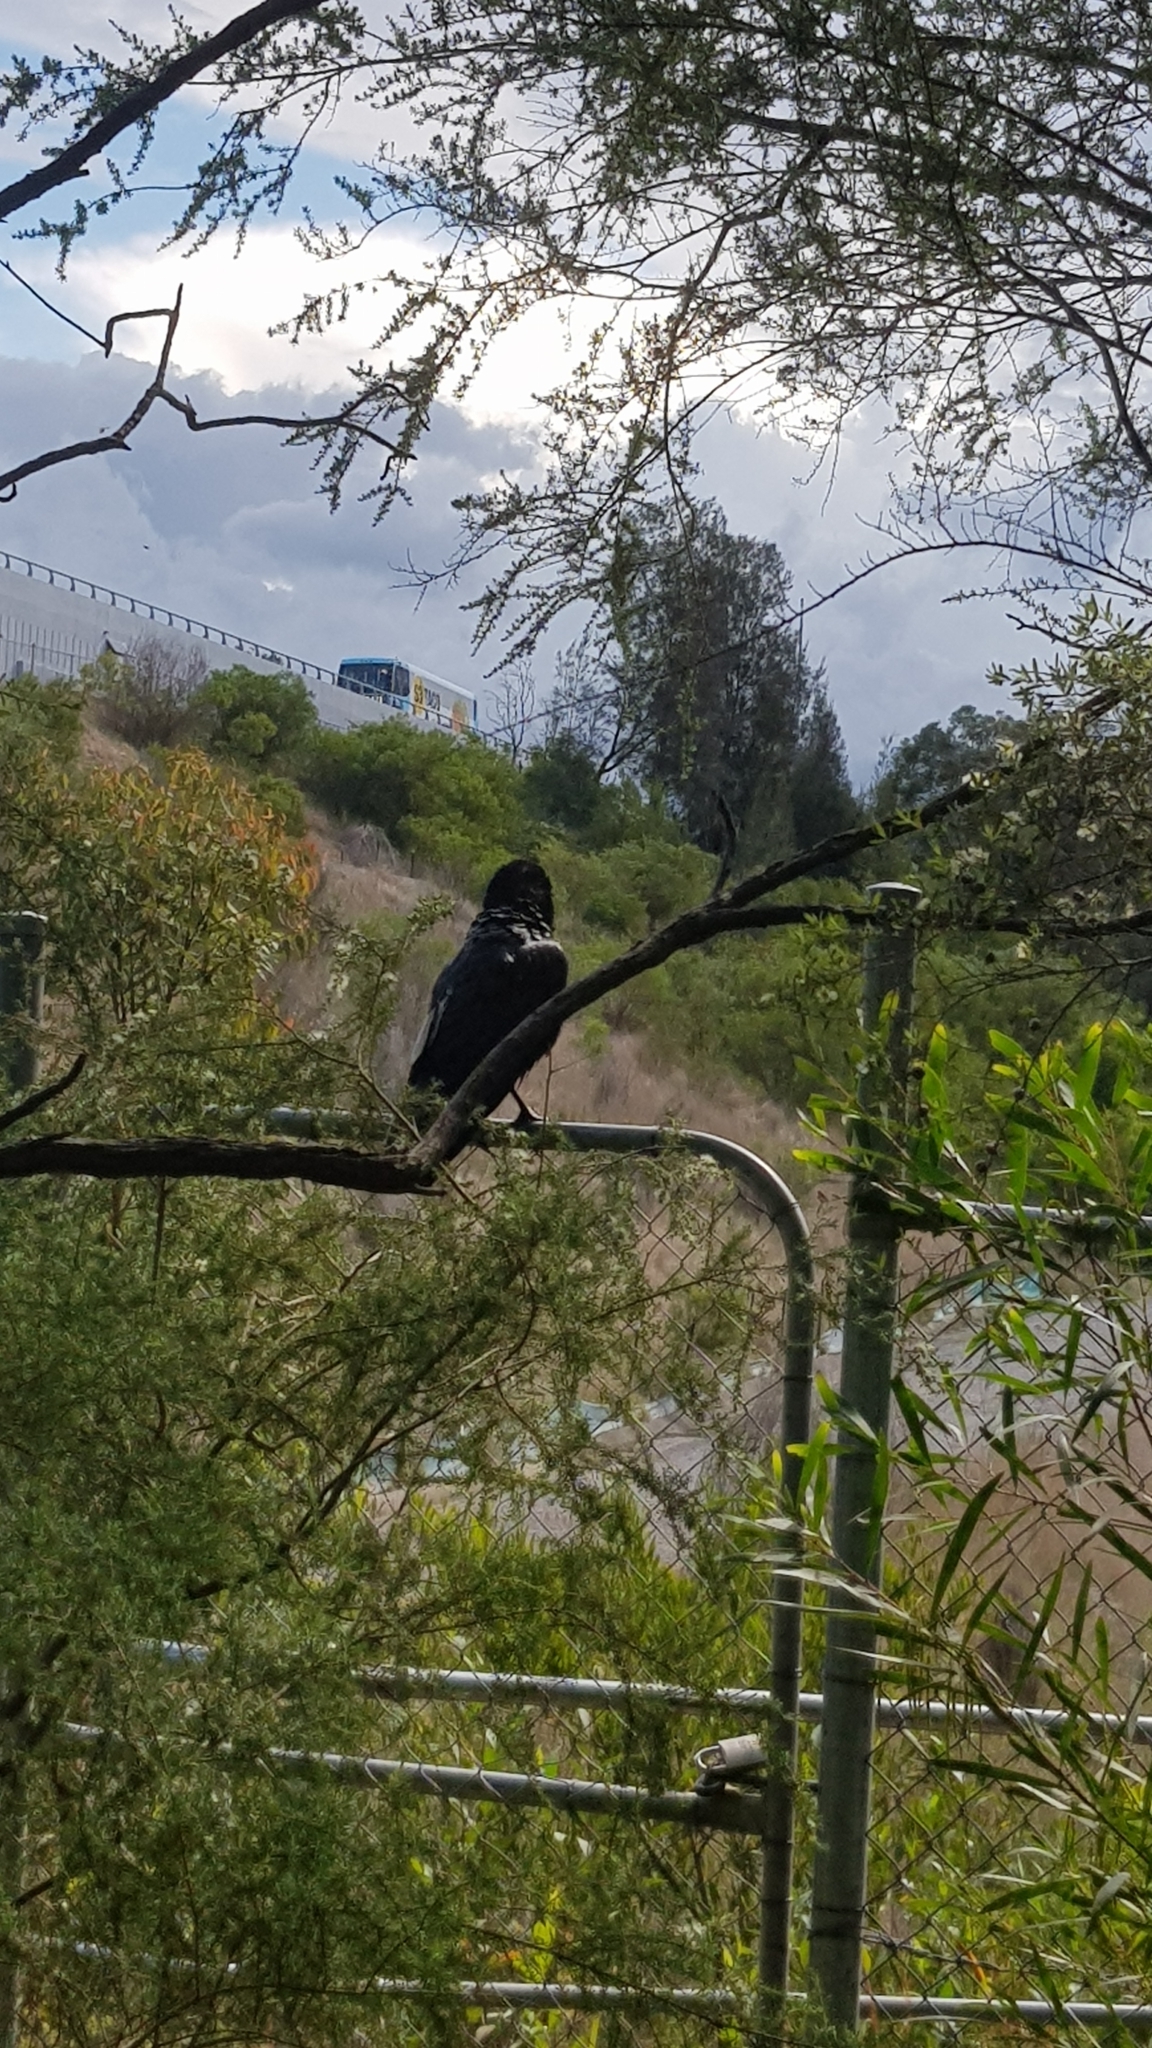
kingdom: Animalia
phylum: Chordata
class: Aves
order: Passeriformes
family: Corvidae
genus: Corvus
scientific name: Corvus coronoides
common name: Australian raven
